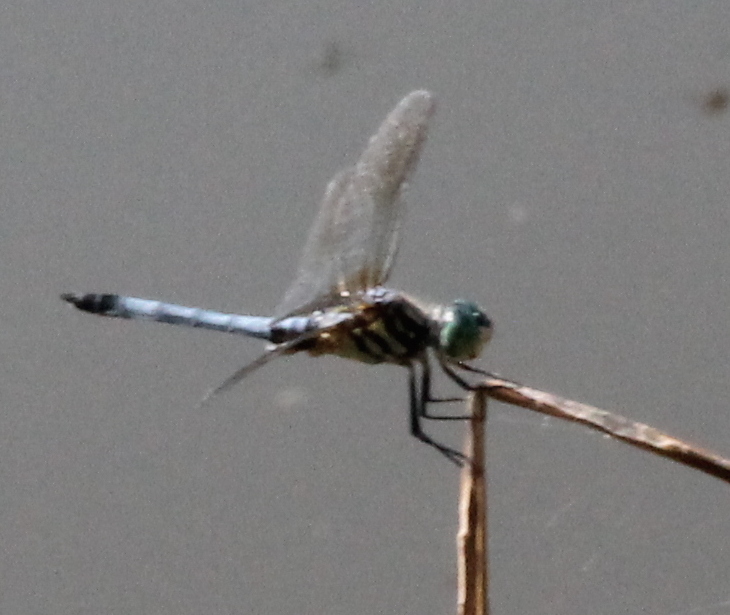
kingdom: Animalia
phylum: Arthropoda
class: Insecta
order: Odonata
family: Libellulidae
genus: Pachydiplax
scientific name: Pachydiplax longipennis
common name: Blue dasher
